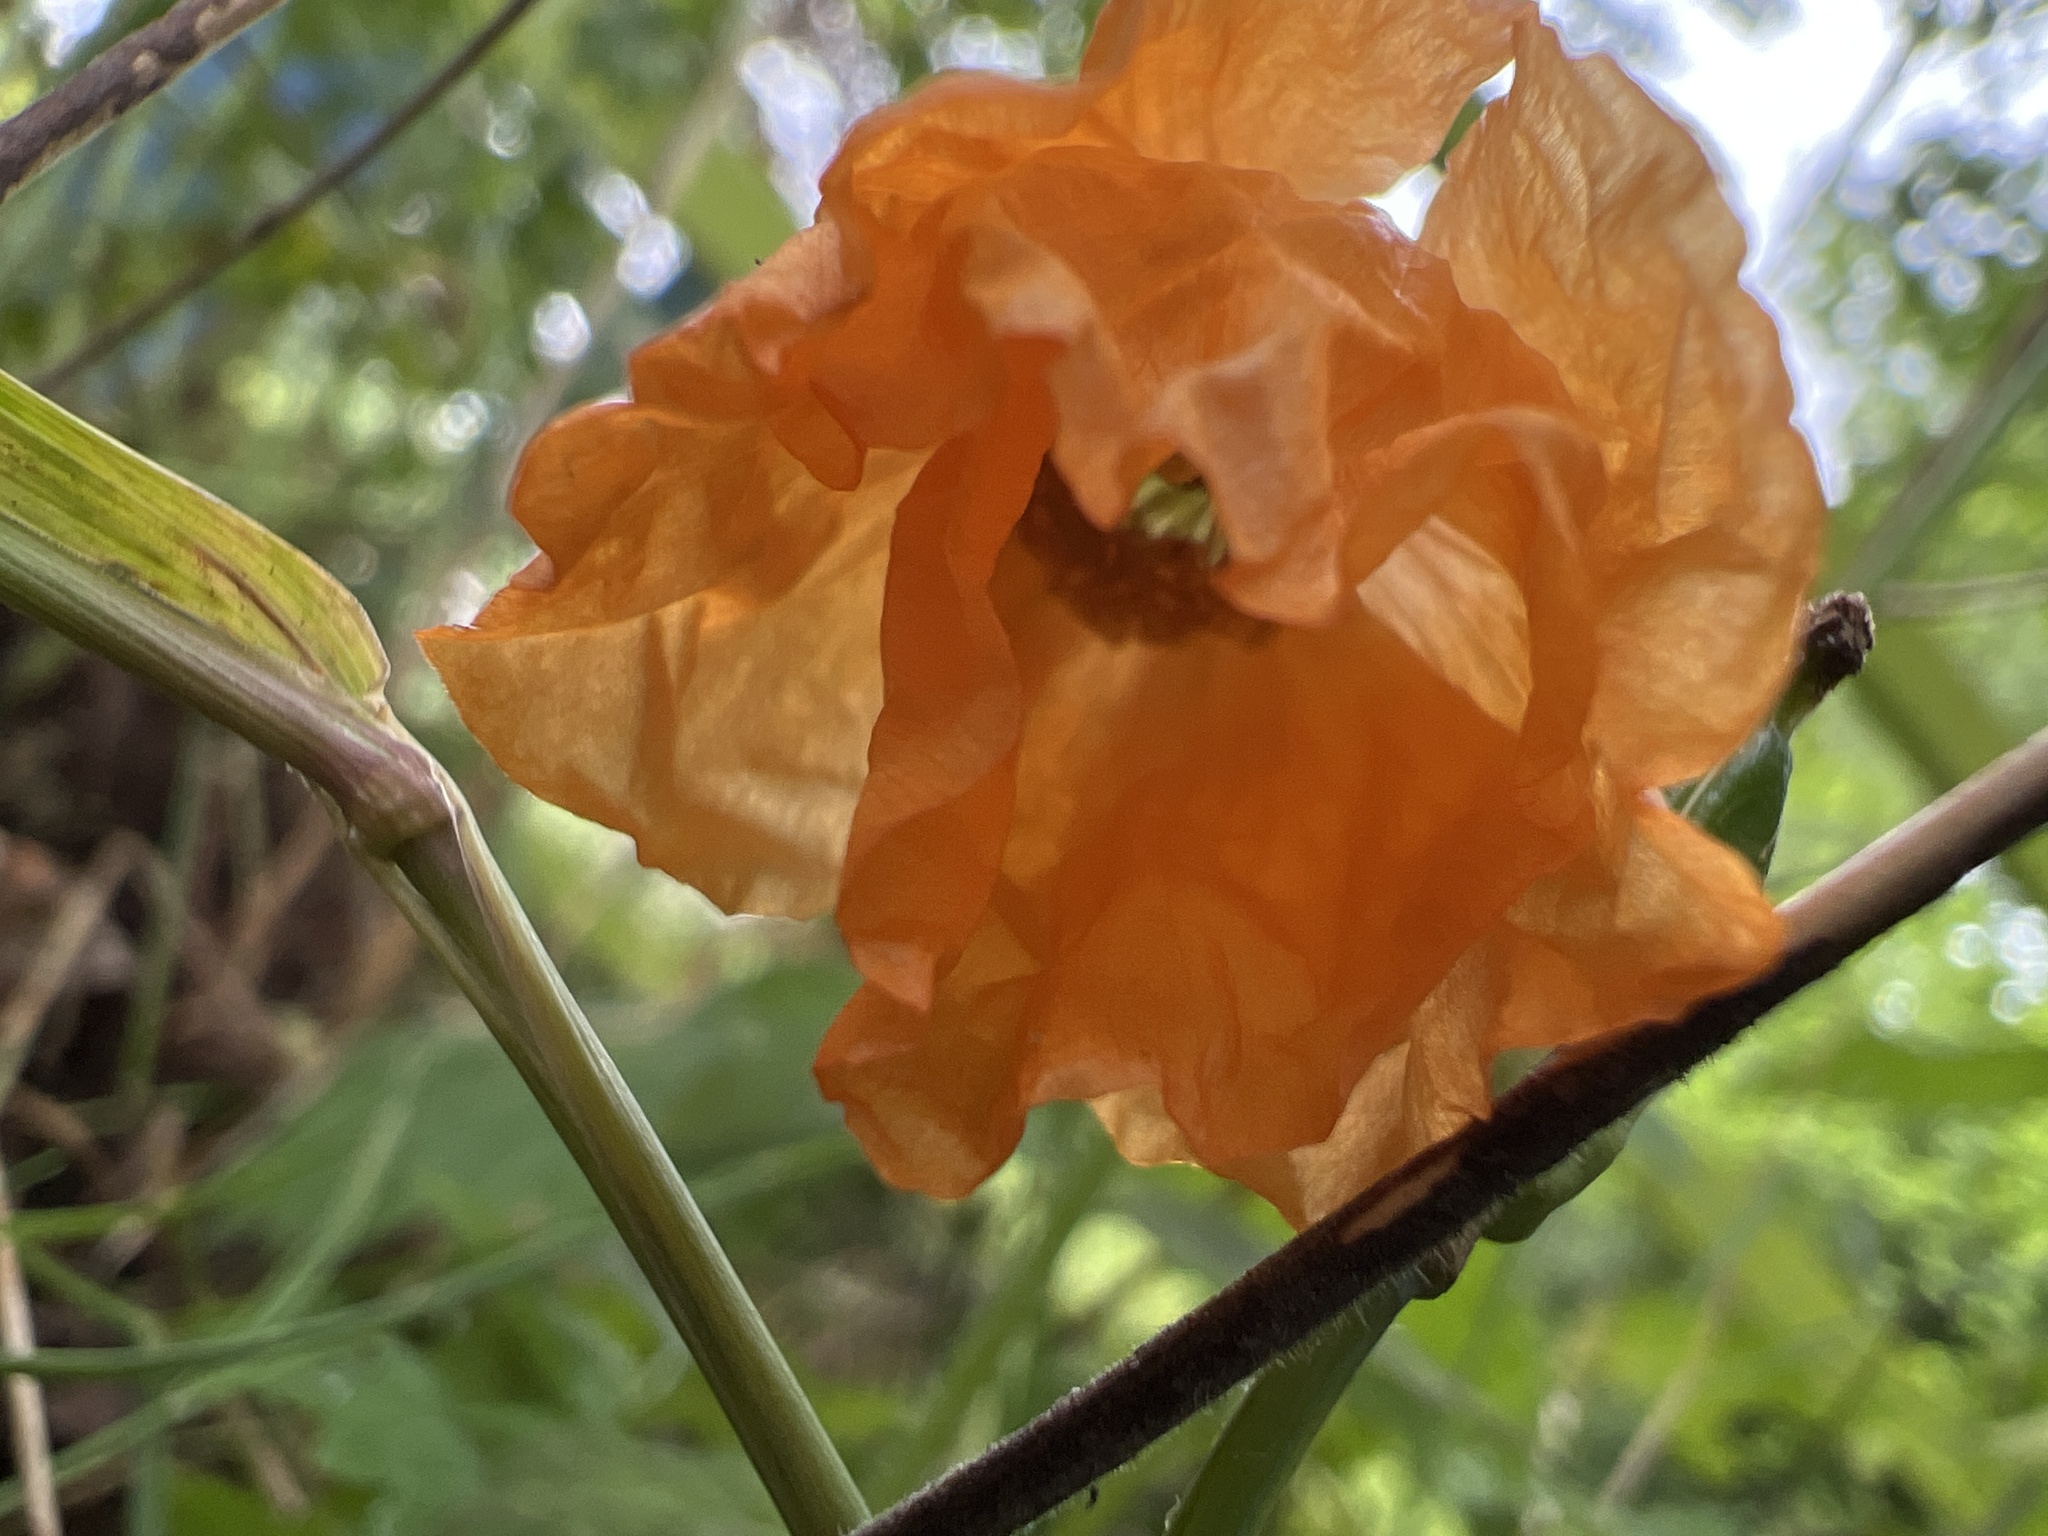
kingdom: Plantae
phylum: Tracheophyta
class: Magnoliopsida
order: Ranunculales
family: Papaveraceae
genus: Papaver
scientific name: Papaver cambricum
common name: Poppy
